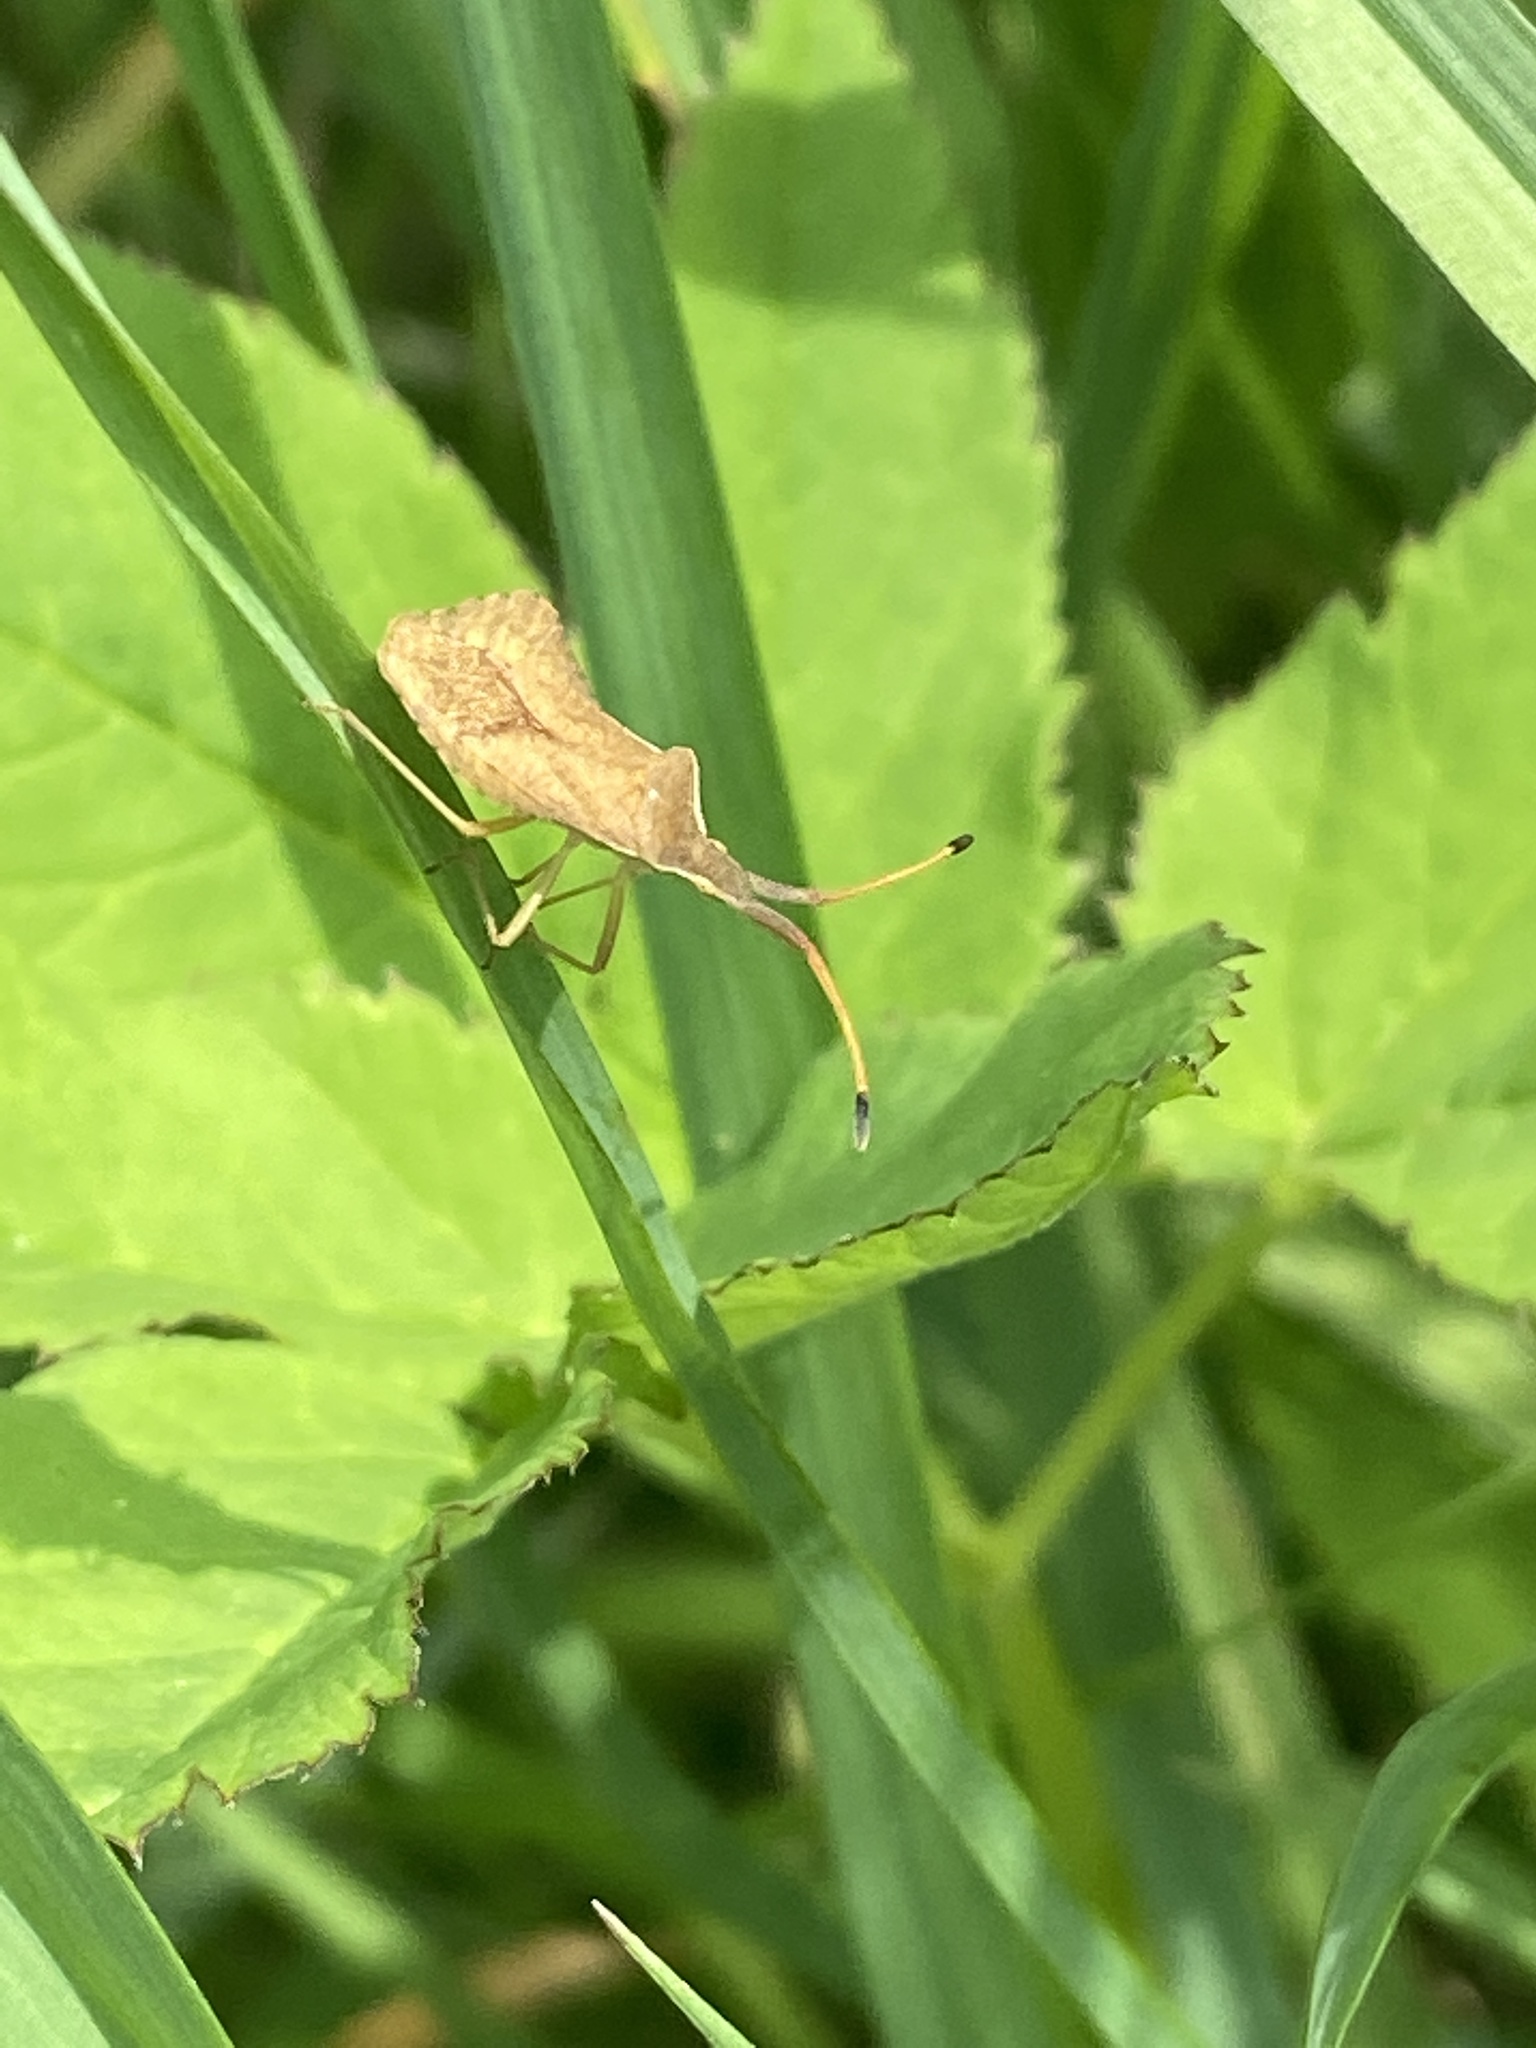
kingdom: Animalia
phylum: Arthropoda
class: Insecta
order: Hemiptera
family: Coreidae
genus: Syromastus
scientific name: Syromastus rhombeus
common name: Rhombic leatherbug
